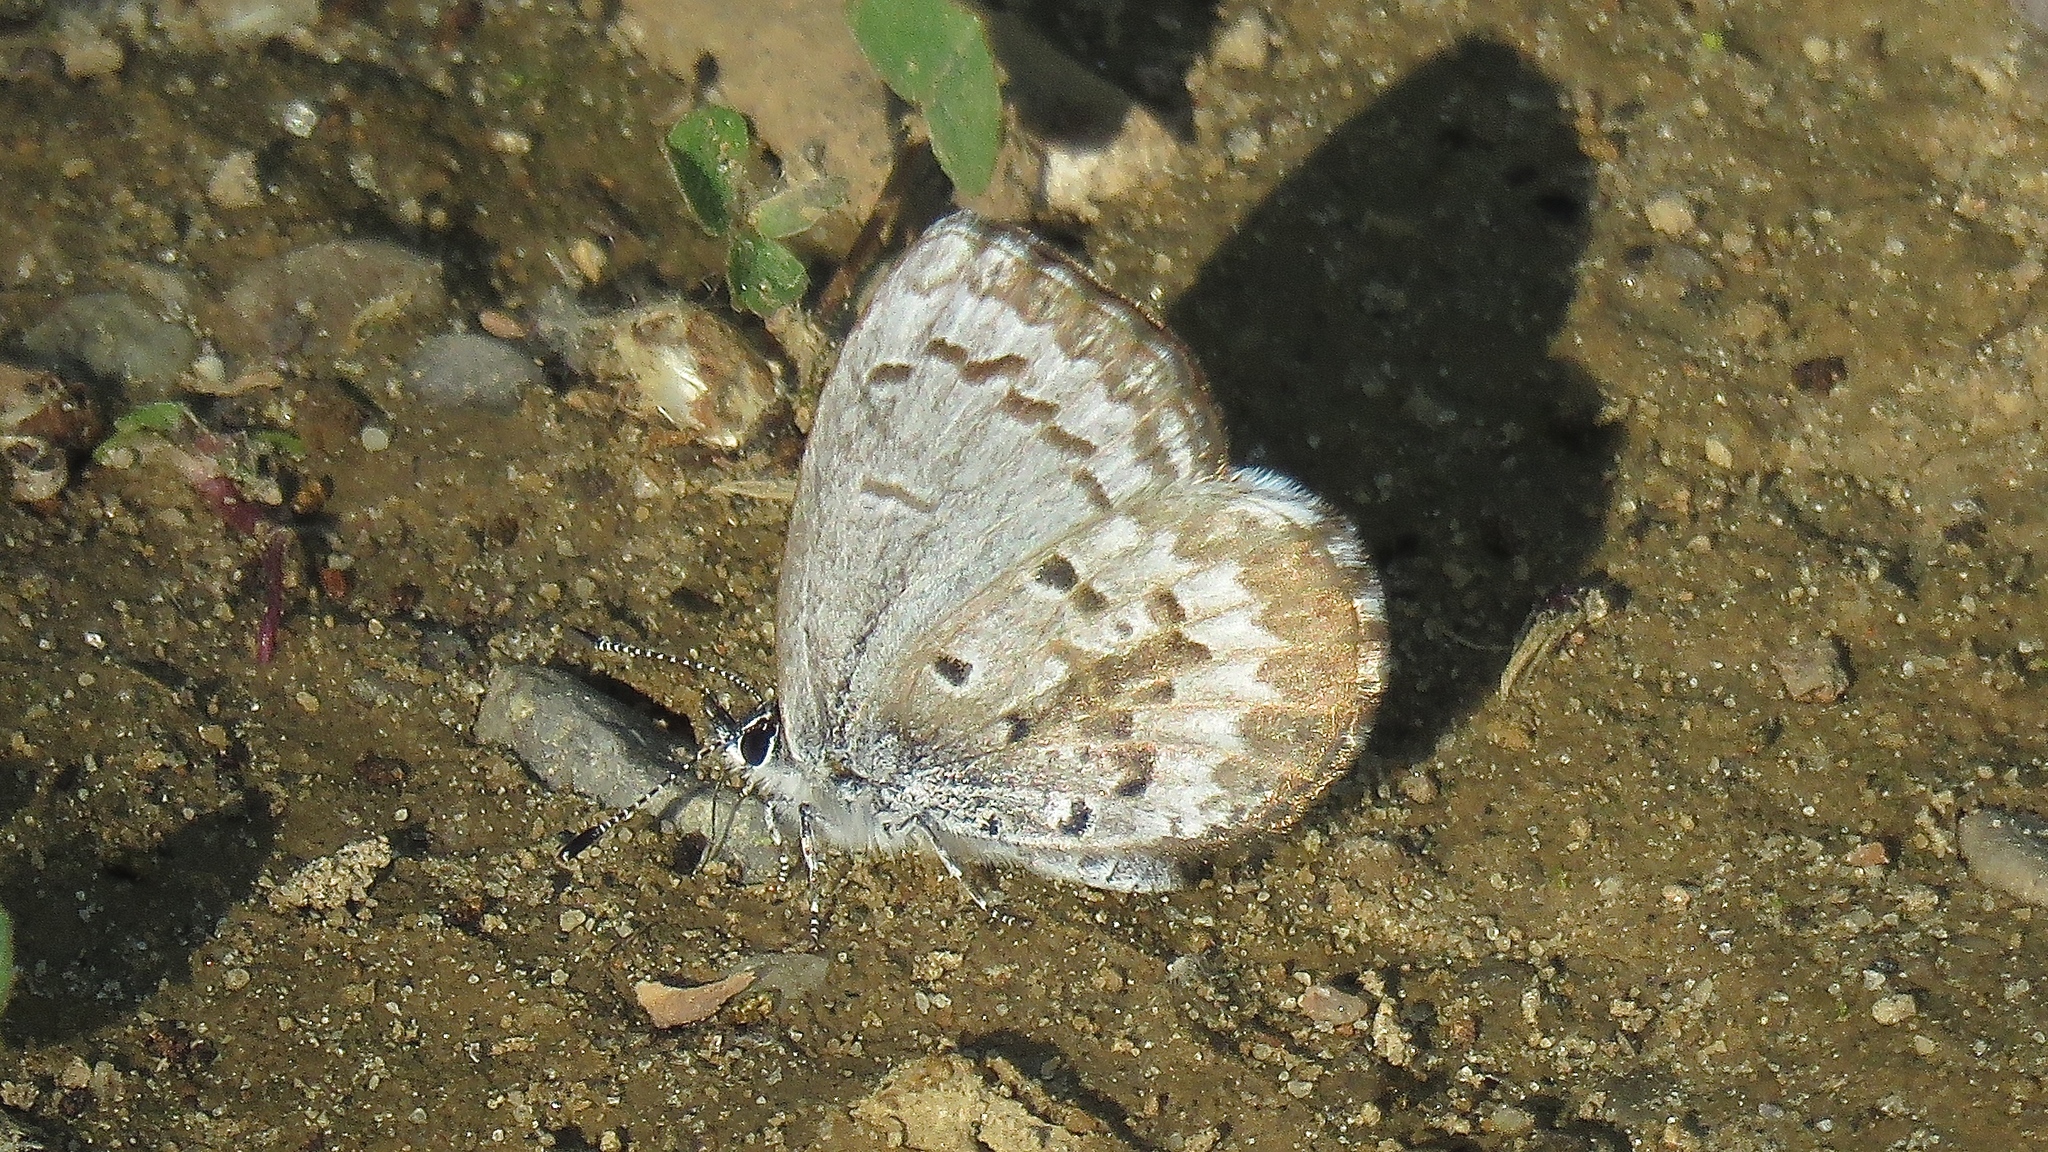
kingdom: Animalia
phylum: Arthropoda
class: Insecta
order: Lepidoptera
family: Lycaenidae
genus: Celastrina
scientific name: Celastrina lucia
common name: Lucia azure
